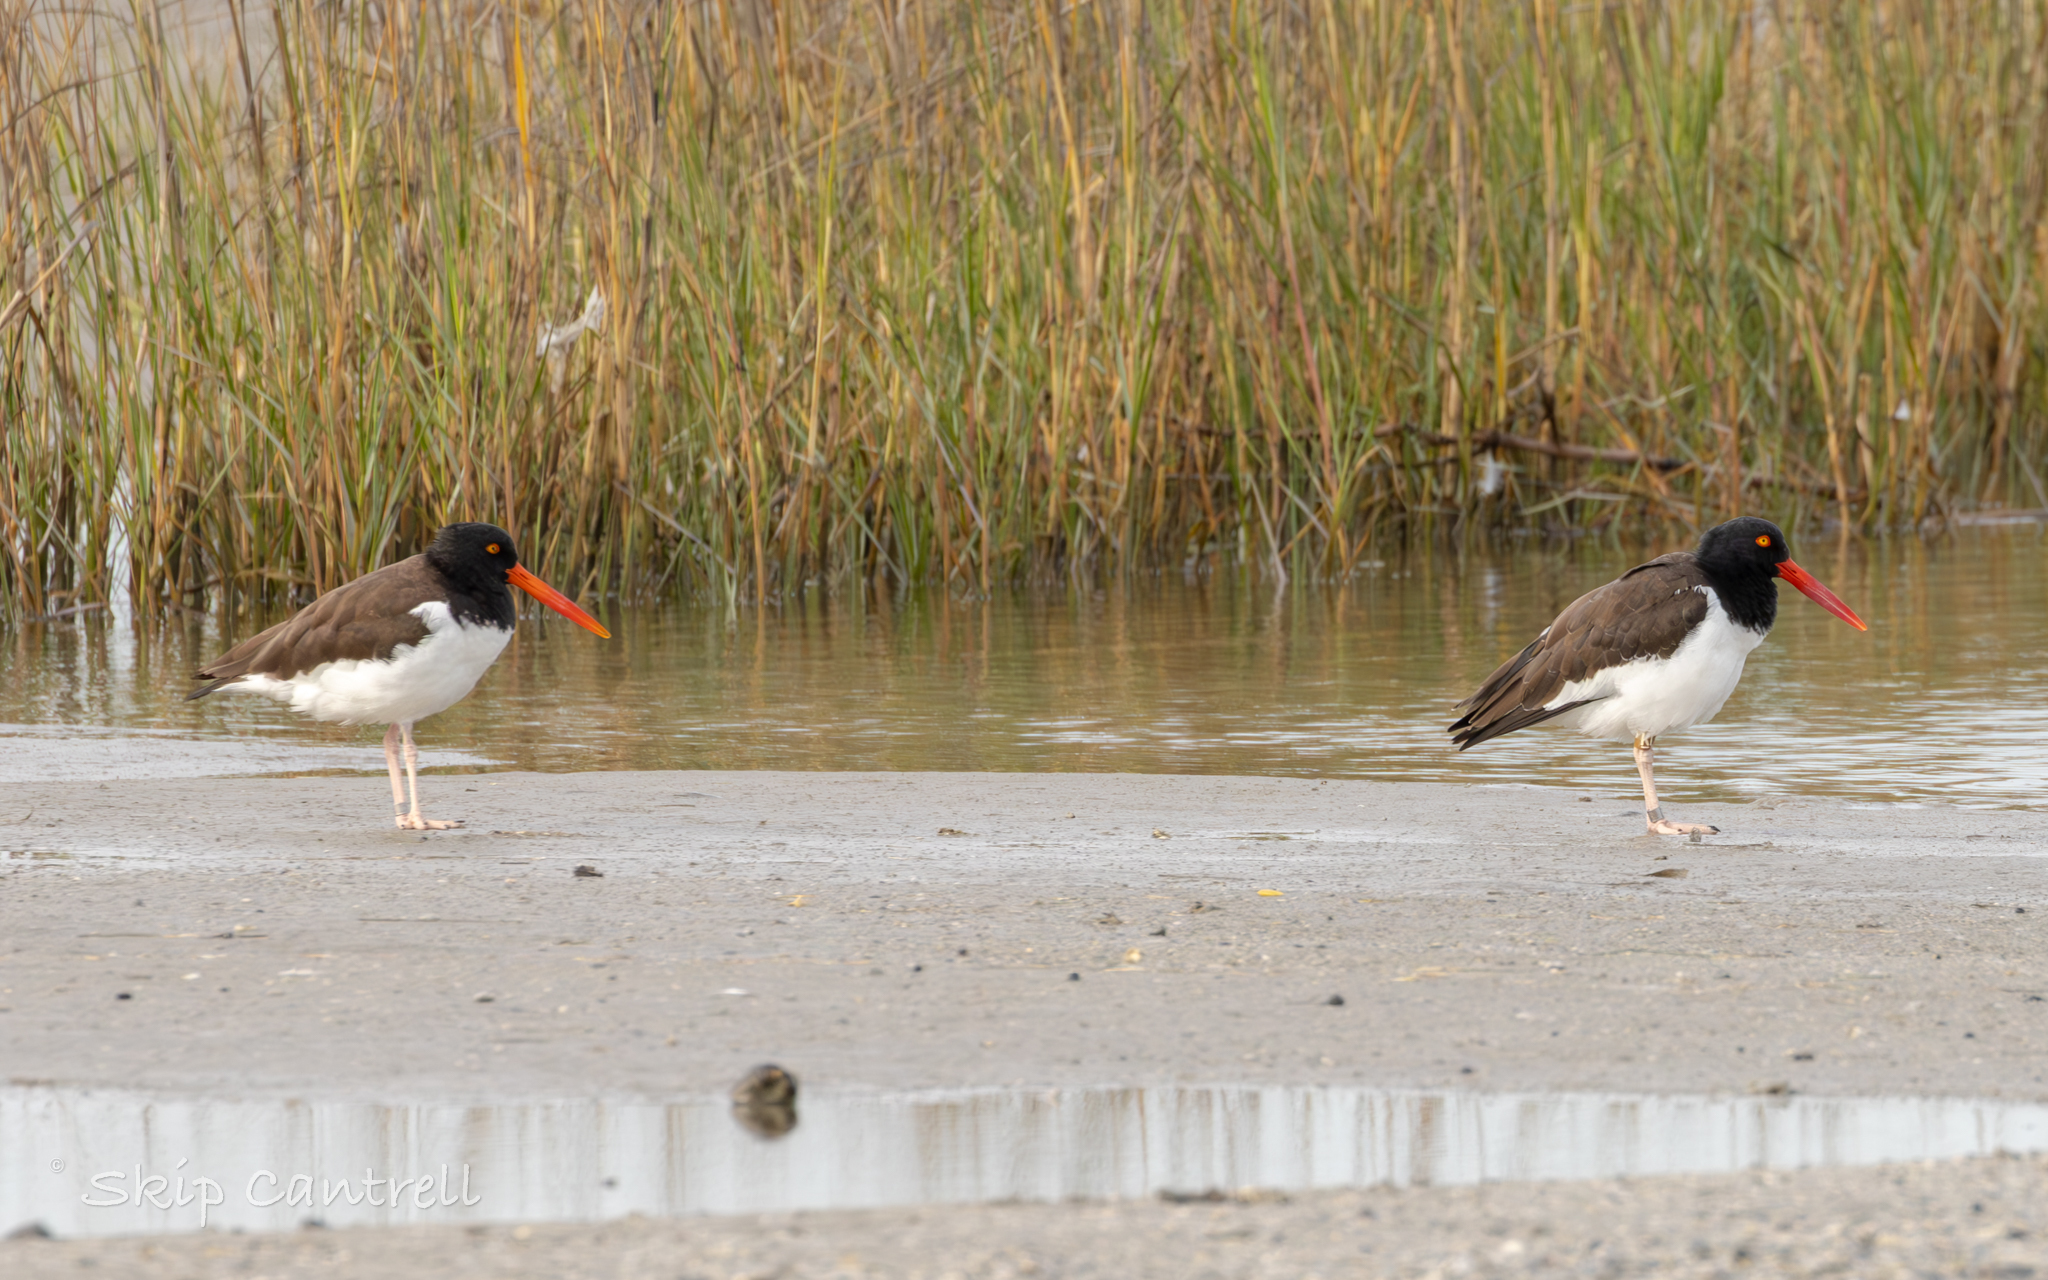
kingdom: Animalia
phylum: Chordata
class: Aves
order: Charadriiformes
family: Haematopodidae
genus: Haematopus
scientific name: Haematopus palliatus
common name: American oystercatcher
